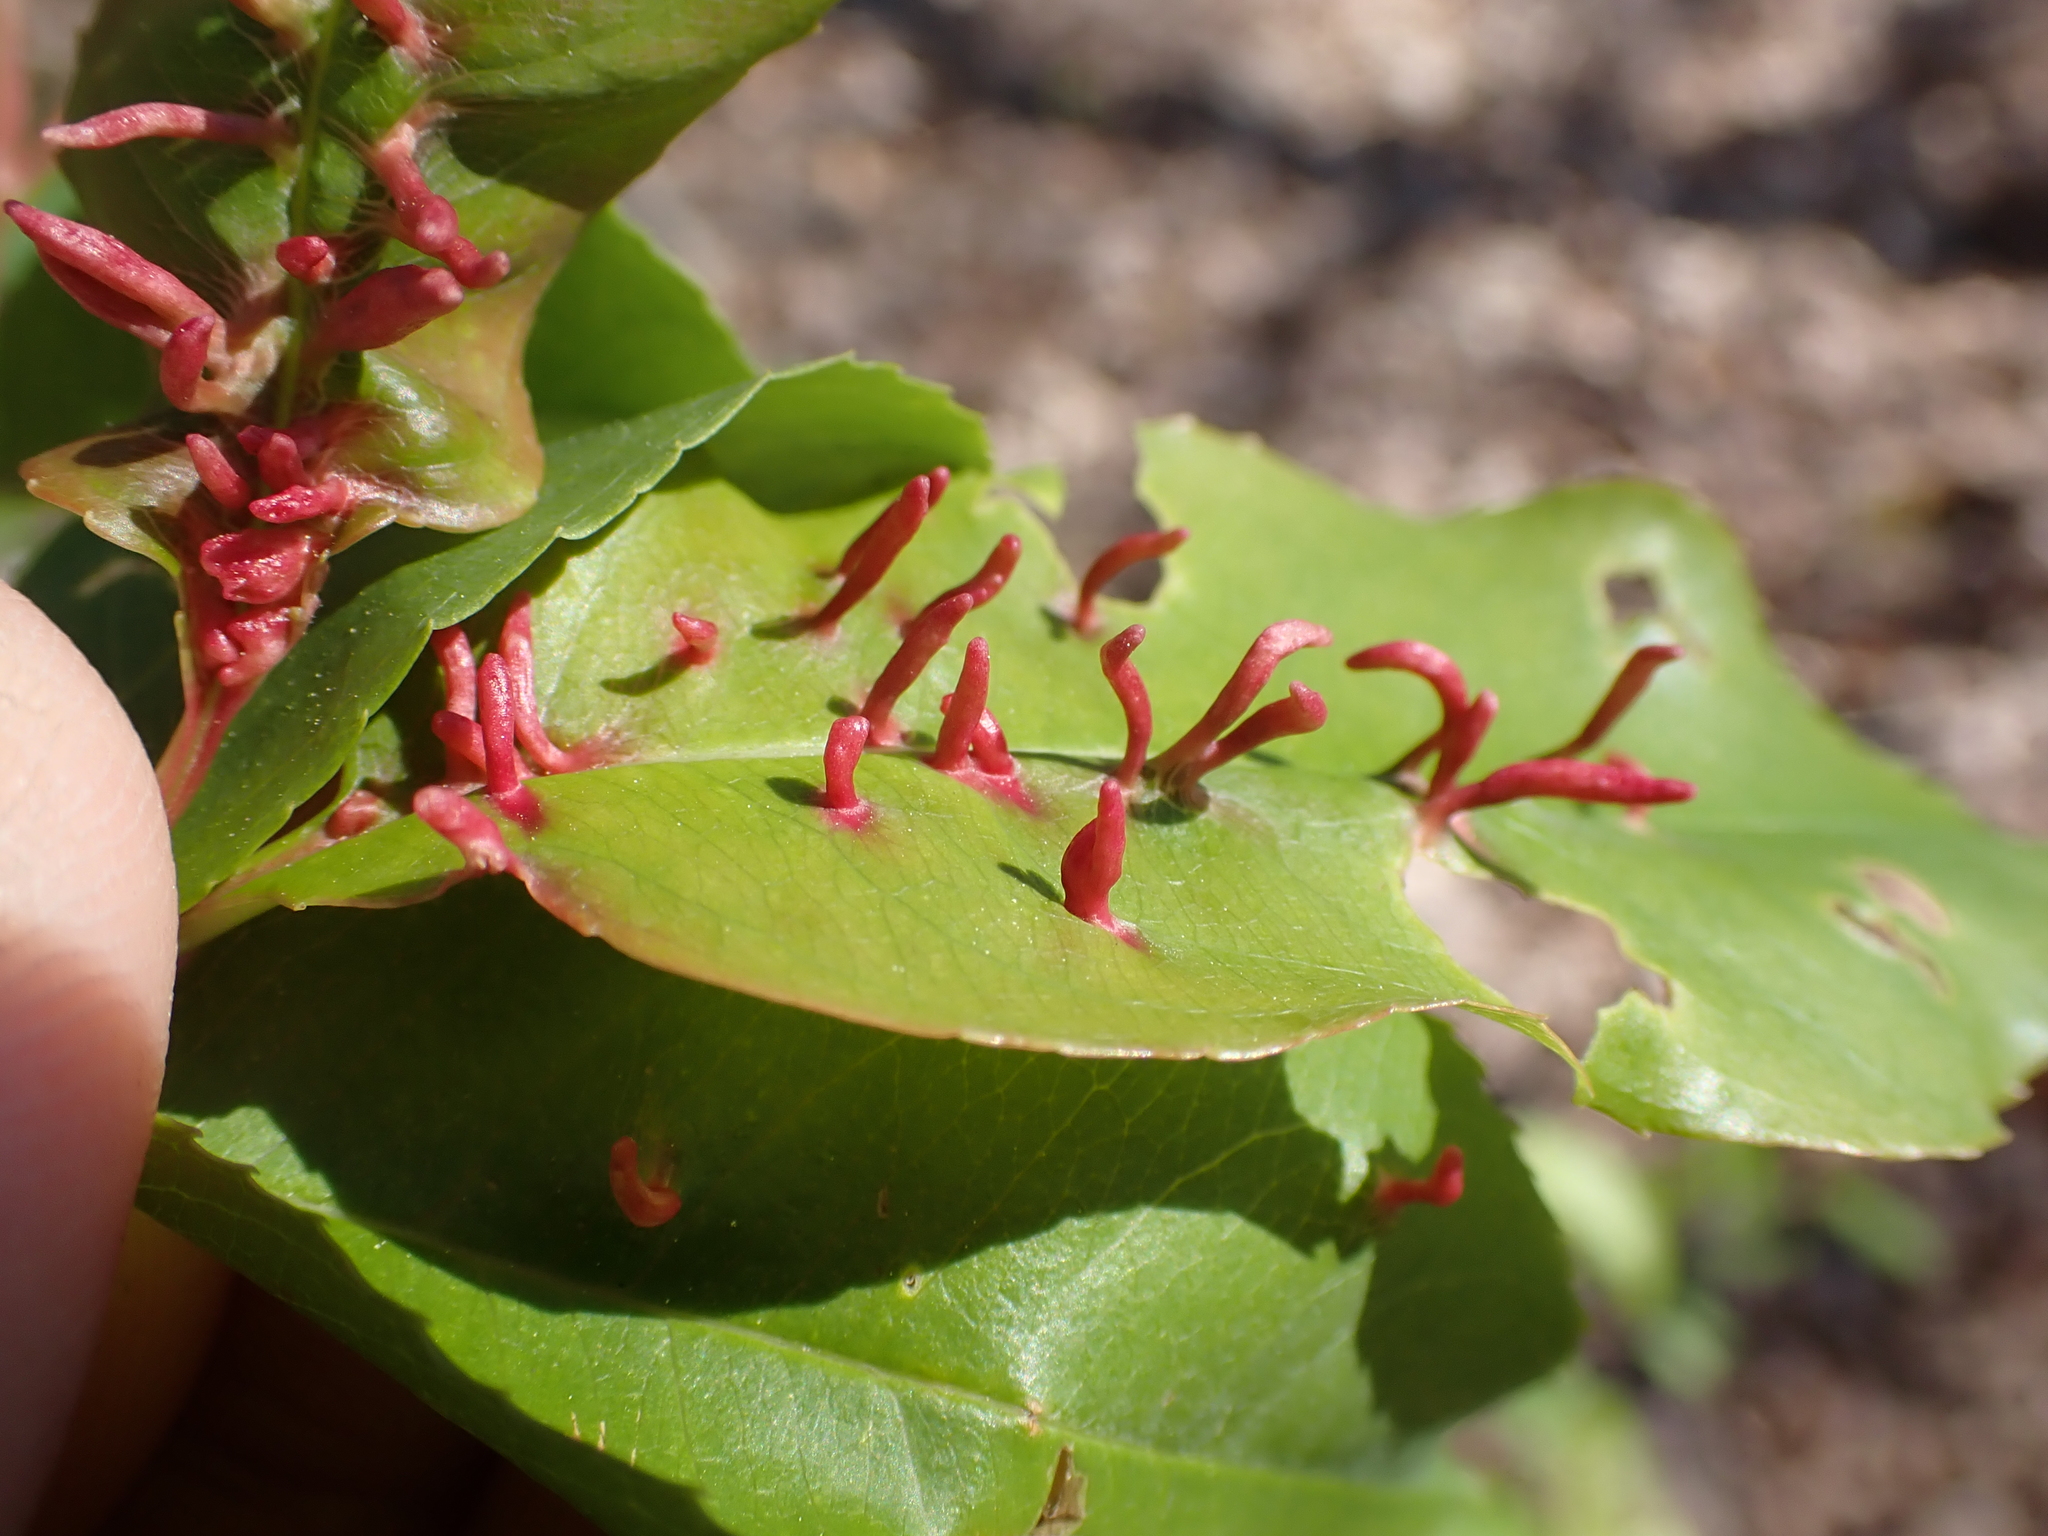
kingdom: Animalia
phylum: Arthropoda
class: Arachnida
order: Trombidiformes
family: Eriophyidae
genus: Eriophyes
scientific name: Eriophyes
